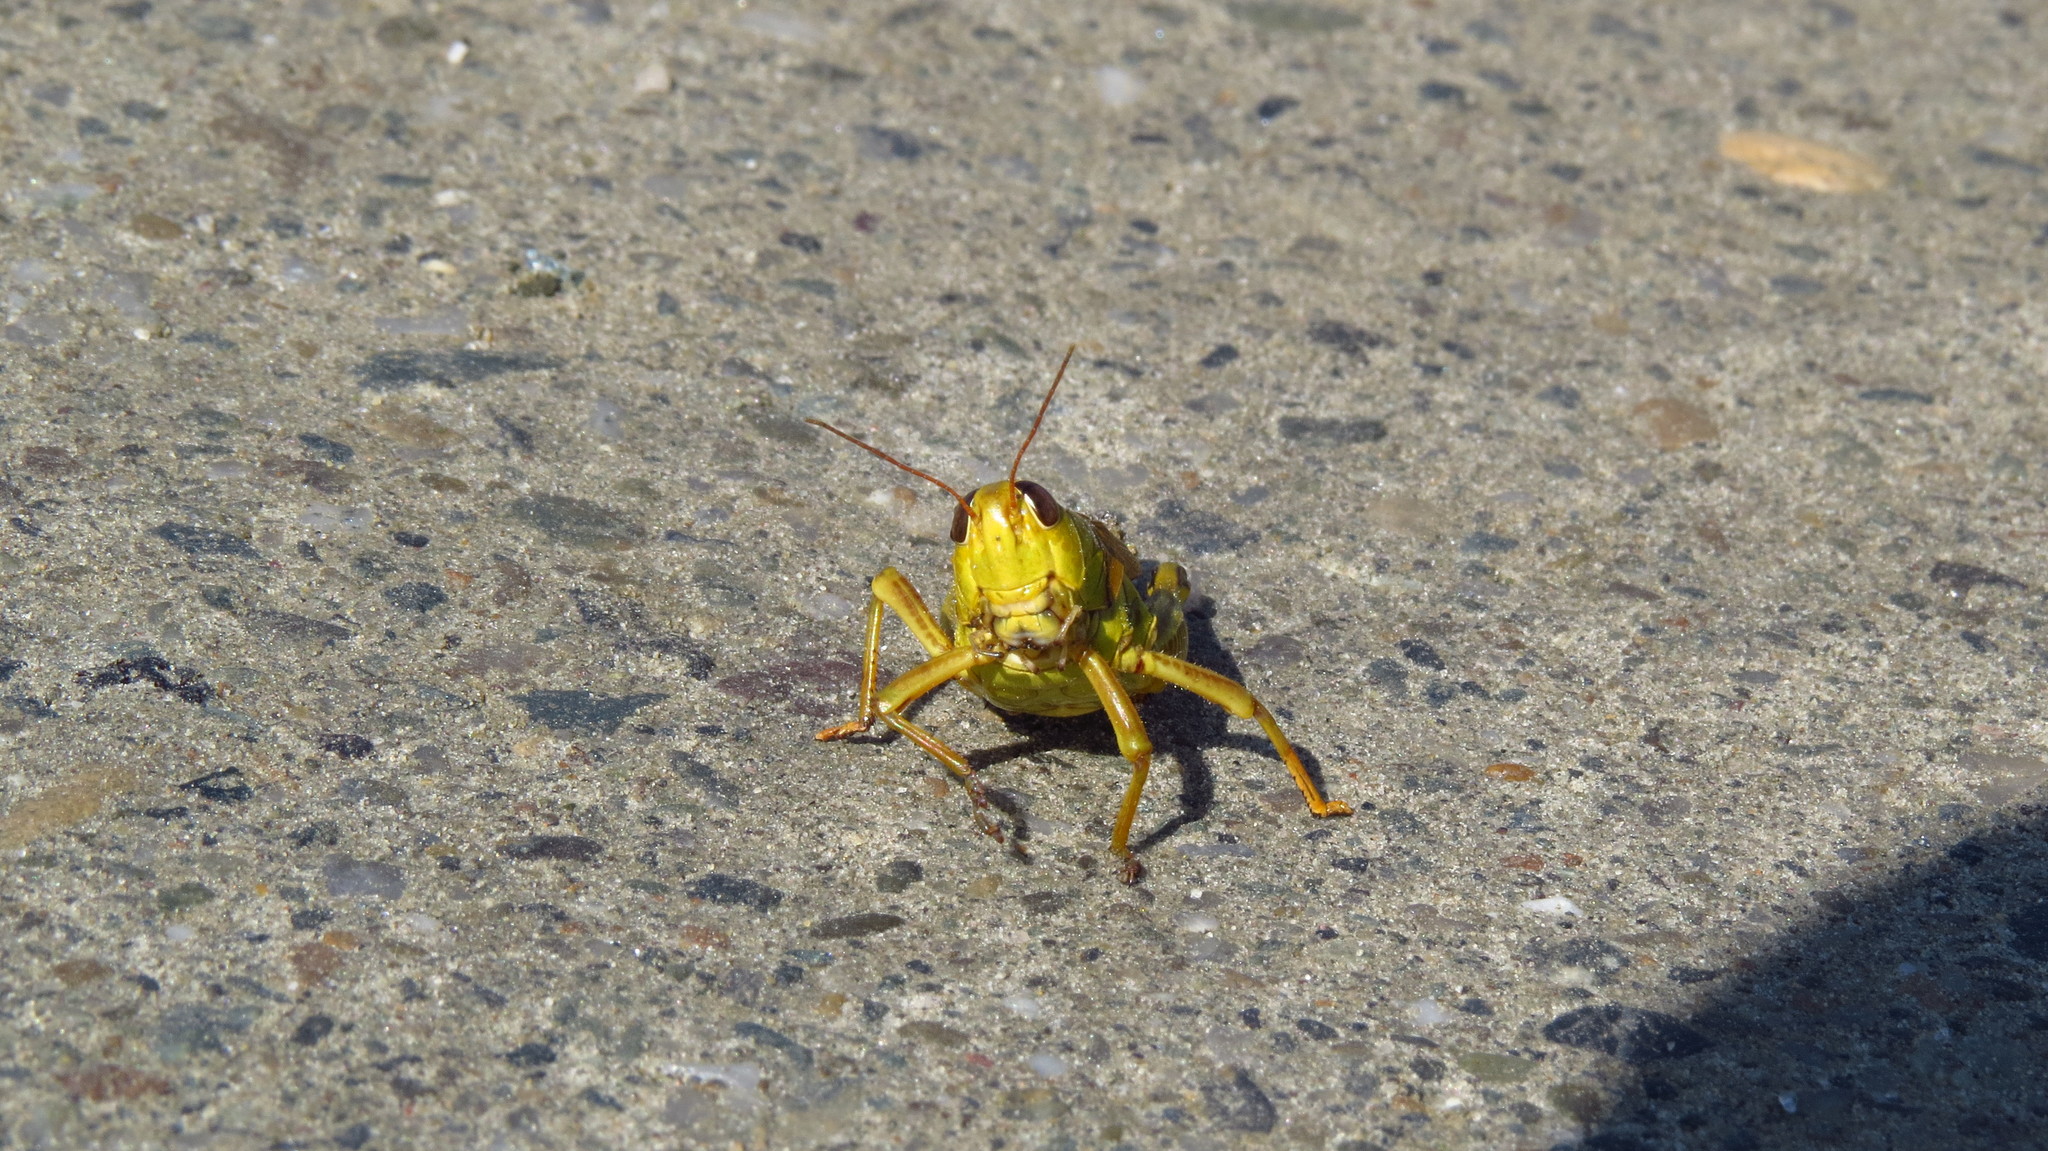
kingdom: Animalia
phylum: Arthropoda
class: Insecta
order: Orthoptera
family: Acrididae
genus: Melanoplus
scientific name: Melanoplus bivittatus
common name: Two-striped grasshopper
